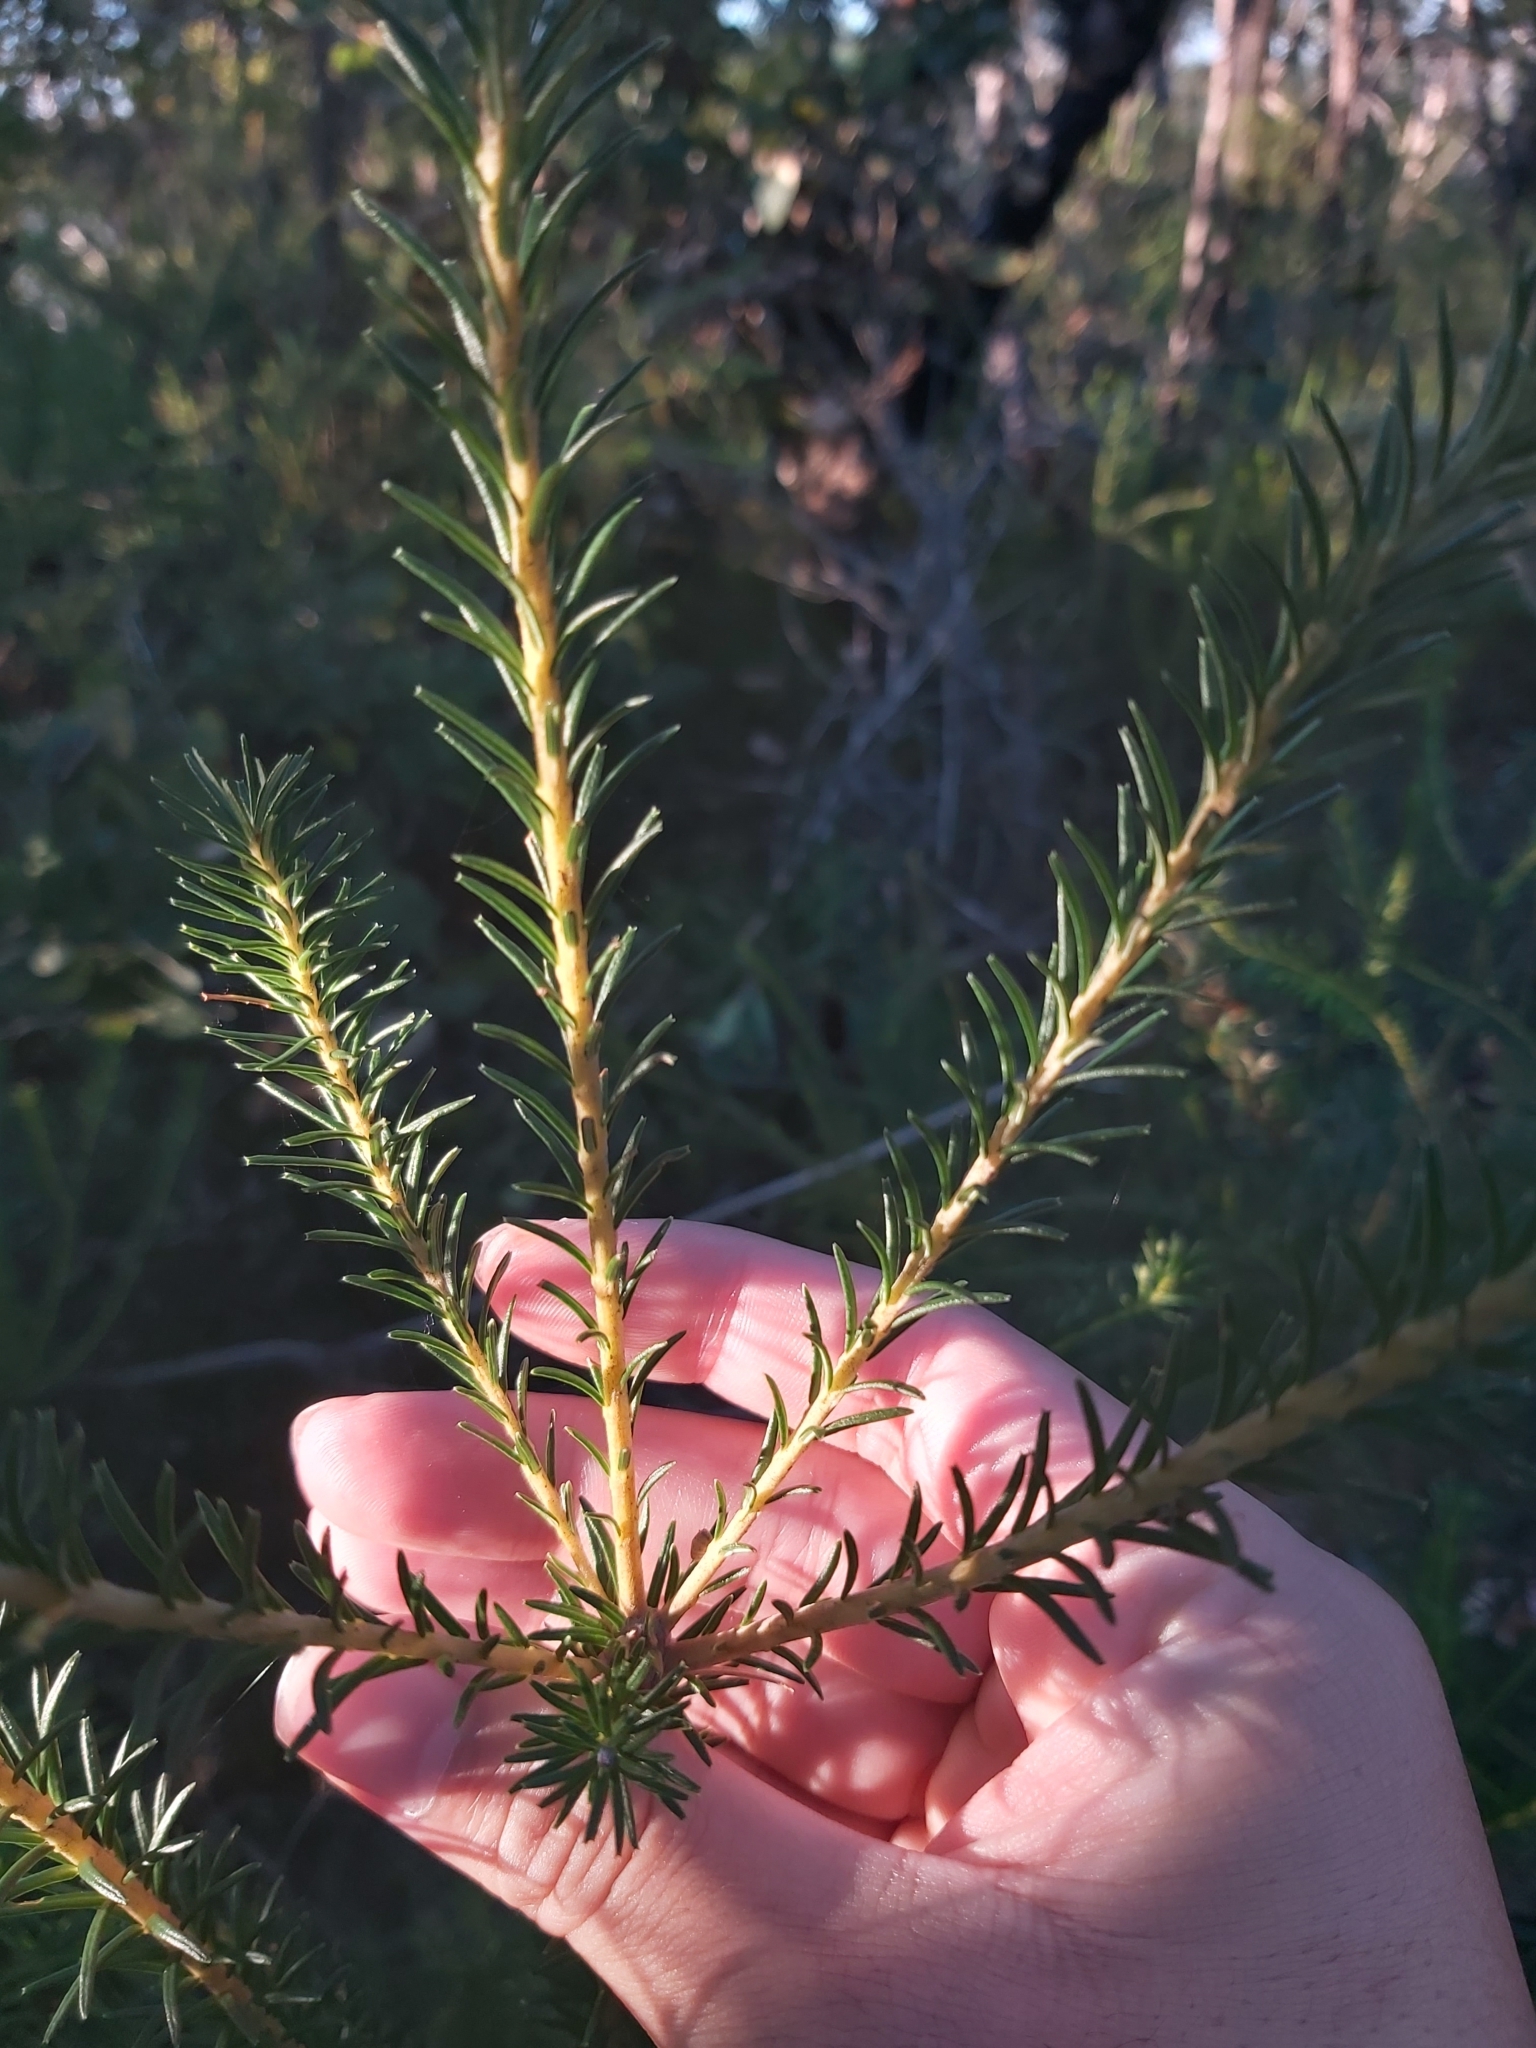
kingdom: Plantae
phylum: Tracheophyta
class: Magnoliopsida
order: Proteales
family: Proteaceae
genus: Banksia
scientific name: Banksia ericifolia
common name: Heath-leaf banksia
